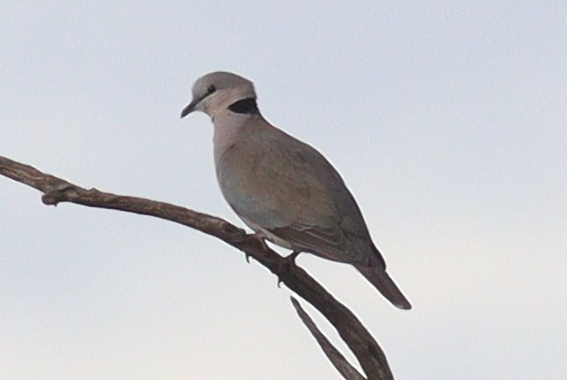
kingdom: Animalia
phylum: Chordata
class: Aves
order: Columbiformes
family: Columbidae
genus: Streptopelia
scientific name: Streptopelia capicola
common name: Ring-necked dove
